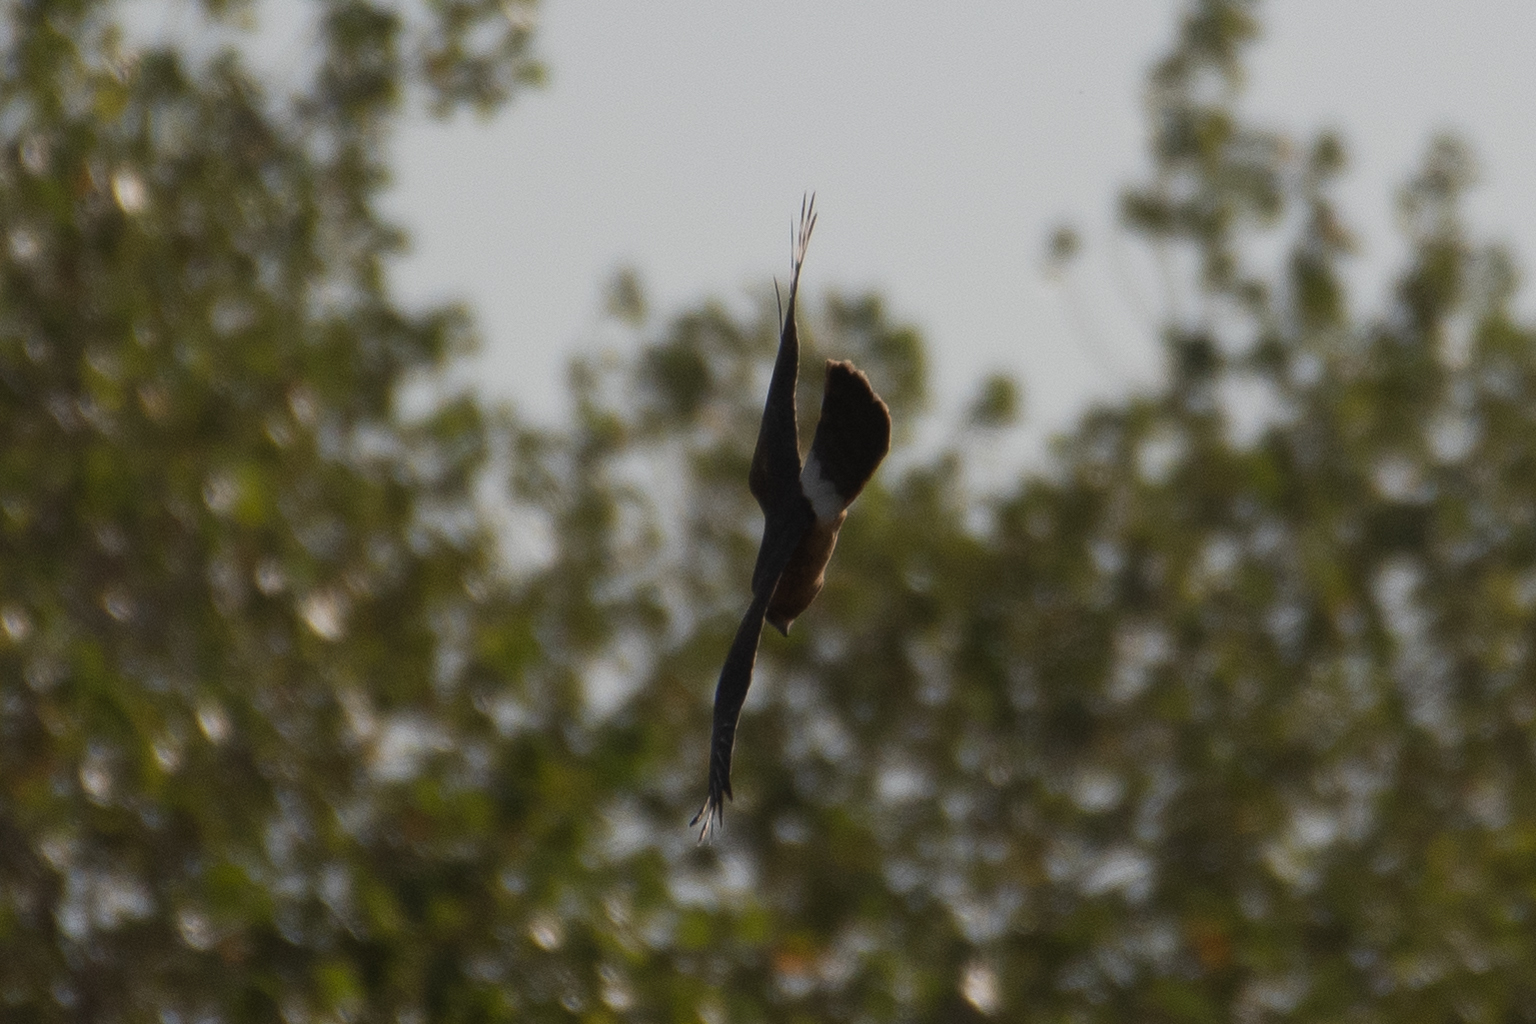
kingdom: Animalia
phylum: Chordata
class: Aves
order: Accipitriformes
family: Accipitridae
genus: Circus
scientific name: Circus cyaneus
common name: Hen harrier
